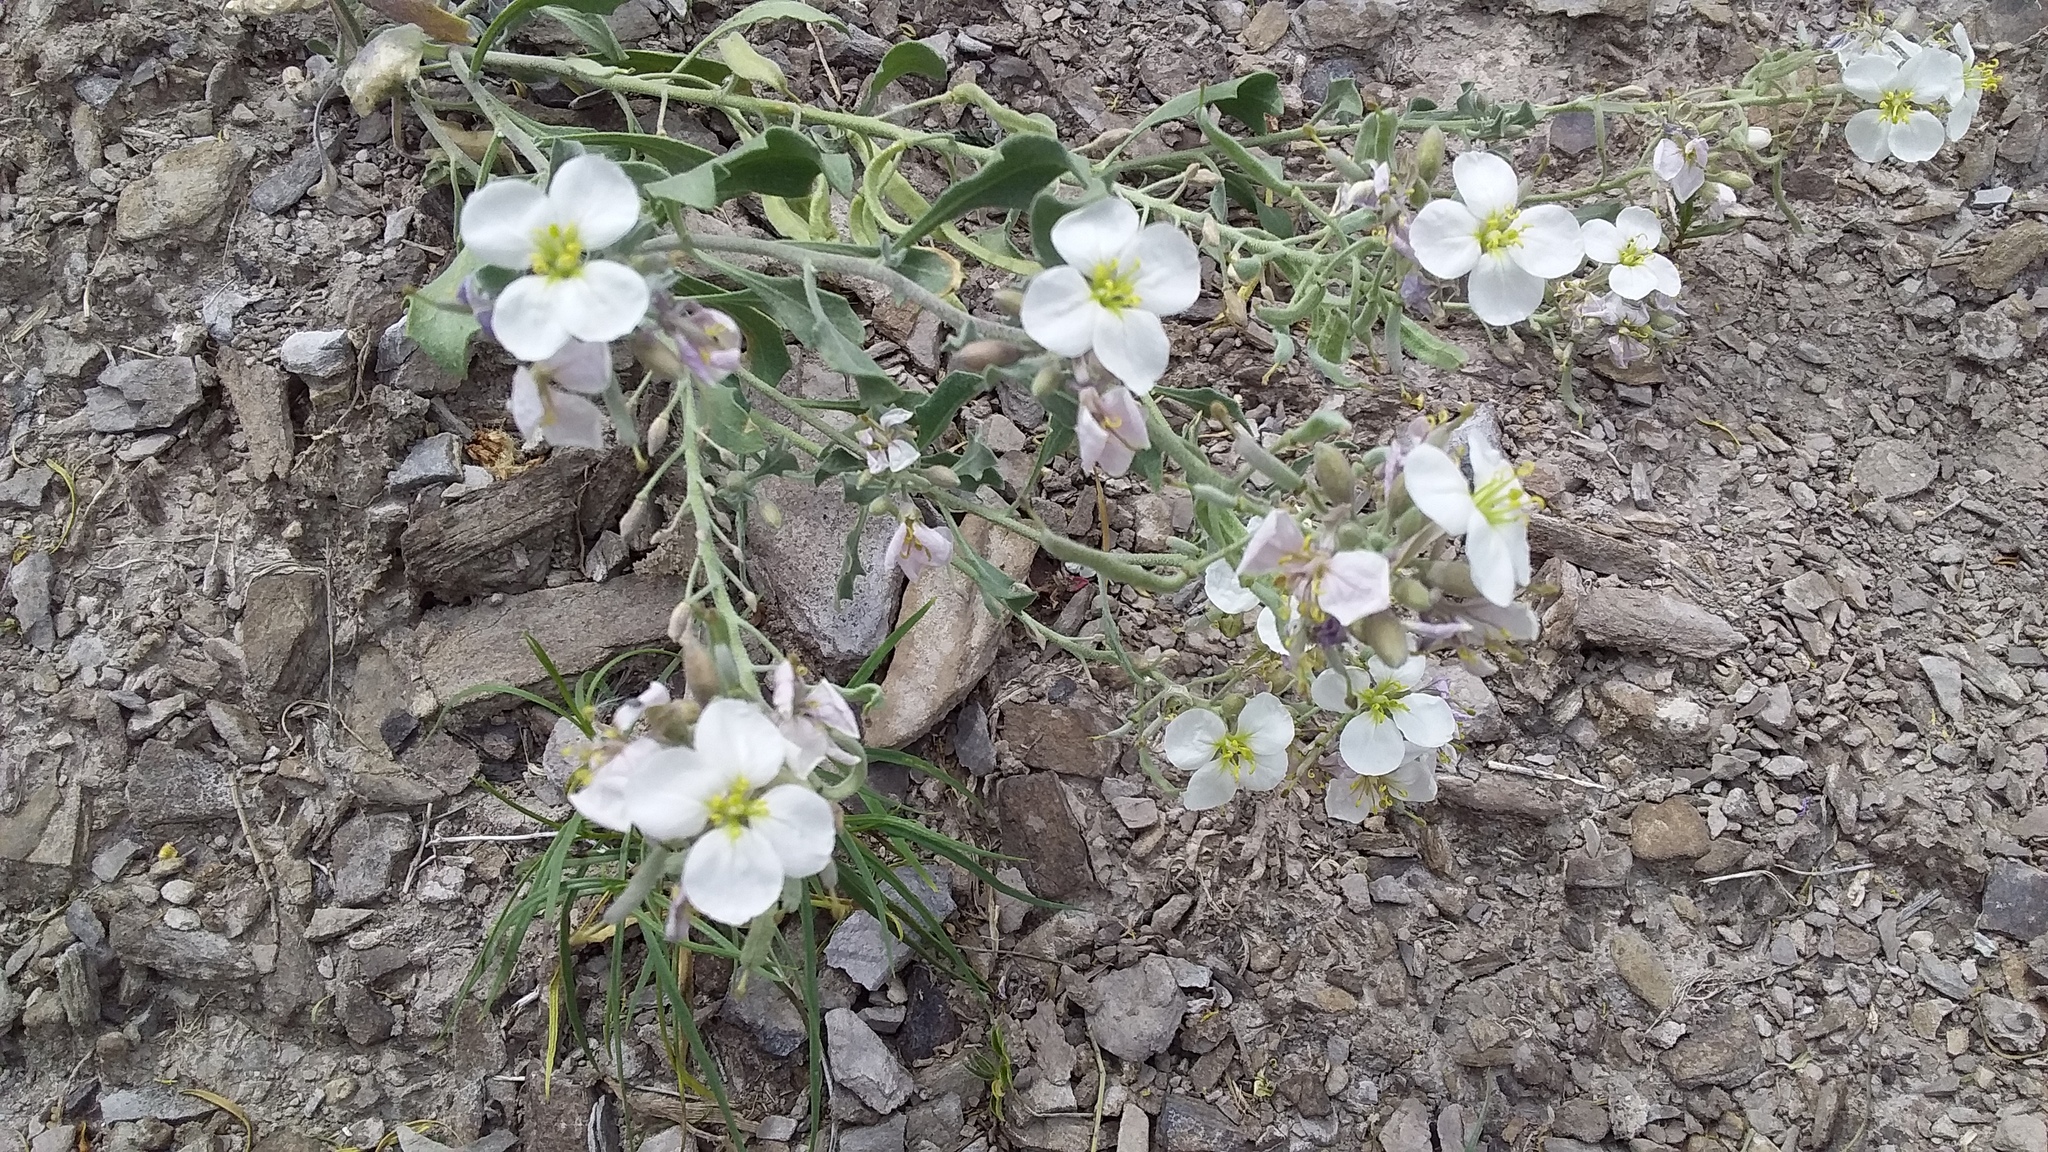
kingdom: Plantae
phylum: Tracheophyta
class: Magnoliopsida
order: Brassicales
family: Brassicaceae
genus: Nerisyrenia
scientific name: Nerisyrenia camporum
